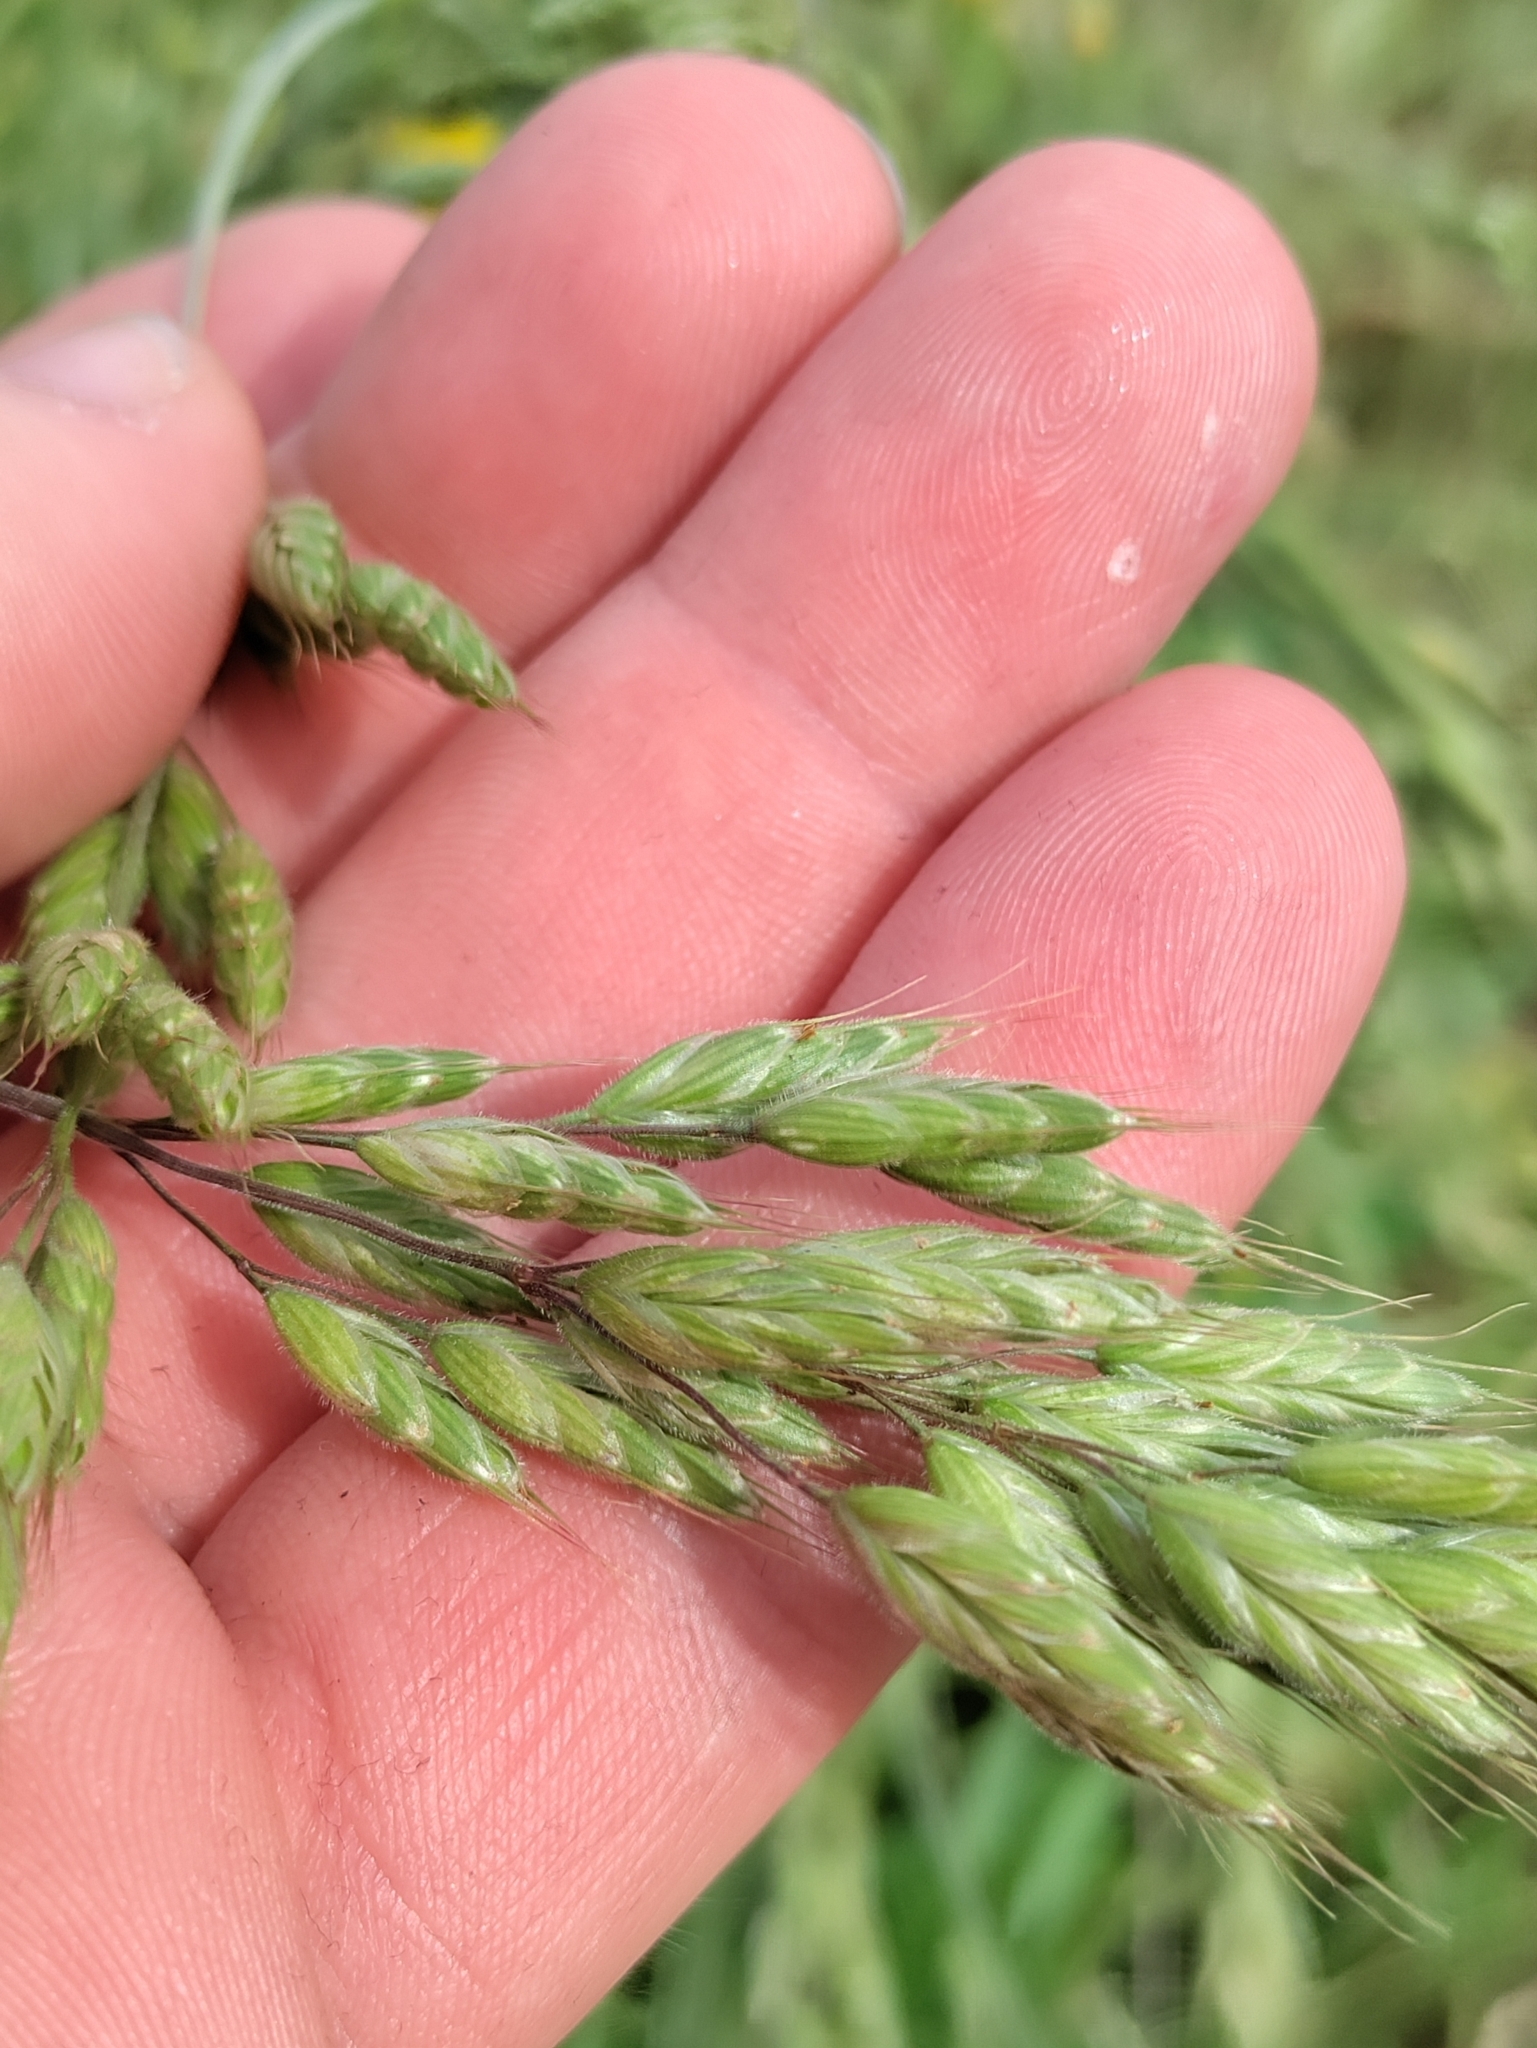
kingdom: Plantae
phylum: Tracheophyta
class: Liliopsida
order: Poales
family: Poaceae
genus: Bromus
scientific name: Bromus hordeaceus
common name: Soft brome
